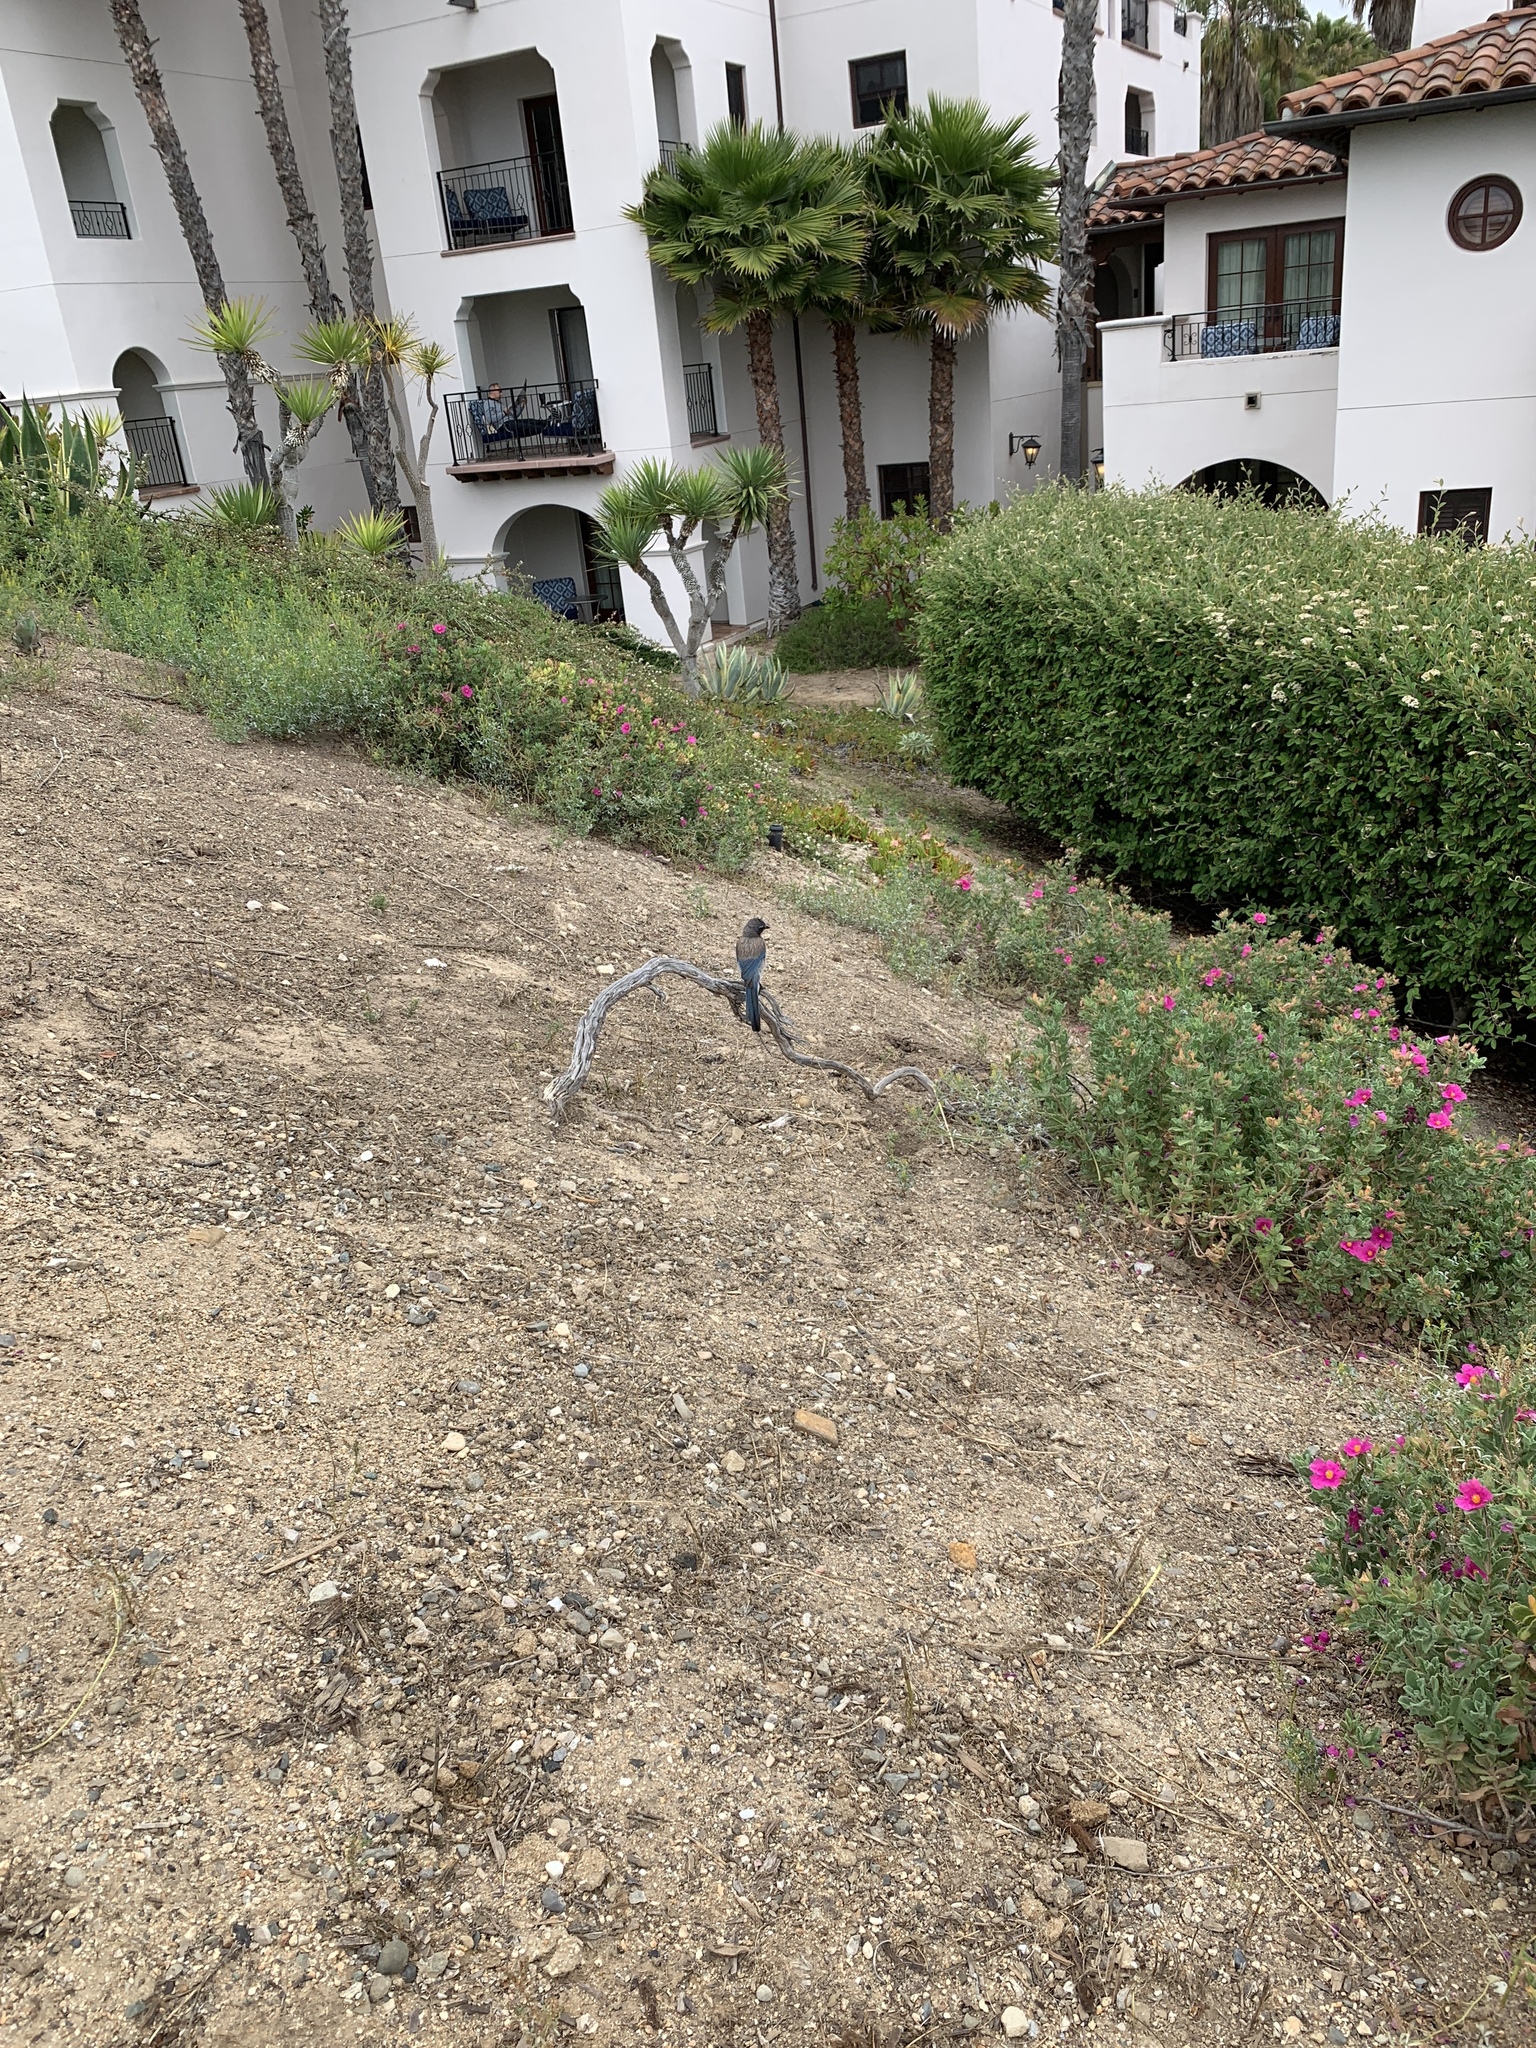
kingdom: Animalia
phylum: Chordata
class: Aves
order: Passeriformes
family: Corvidae
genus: Aphelocoma
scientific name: Aphelocoma californica
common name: California scrub-jay
